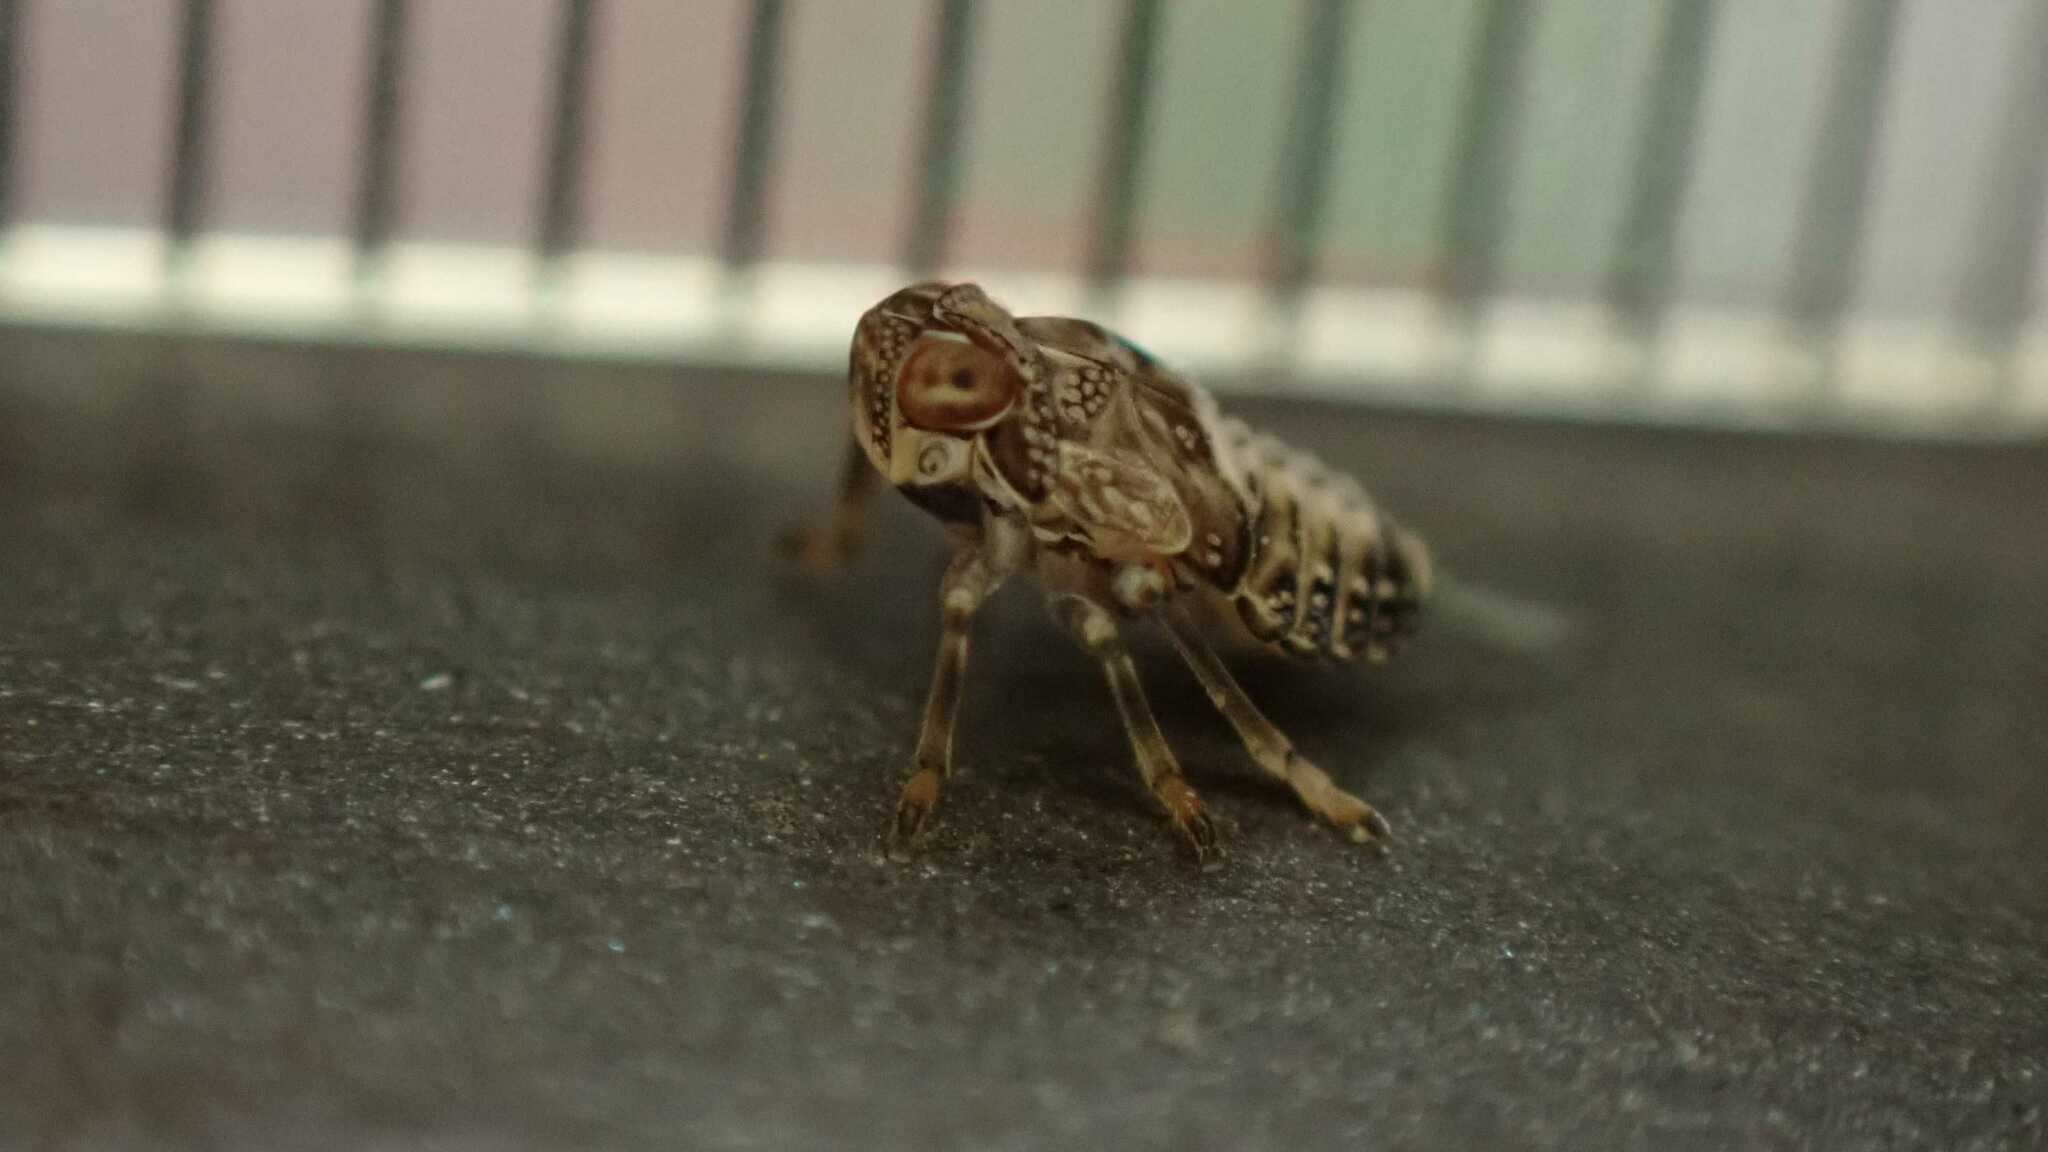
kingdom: Animalia
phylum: Arthropoda
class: Insecta
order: Hemiptera
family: Issidae
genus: Issus
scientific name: Issus coleoptratus
